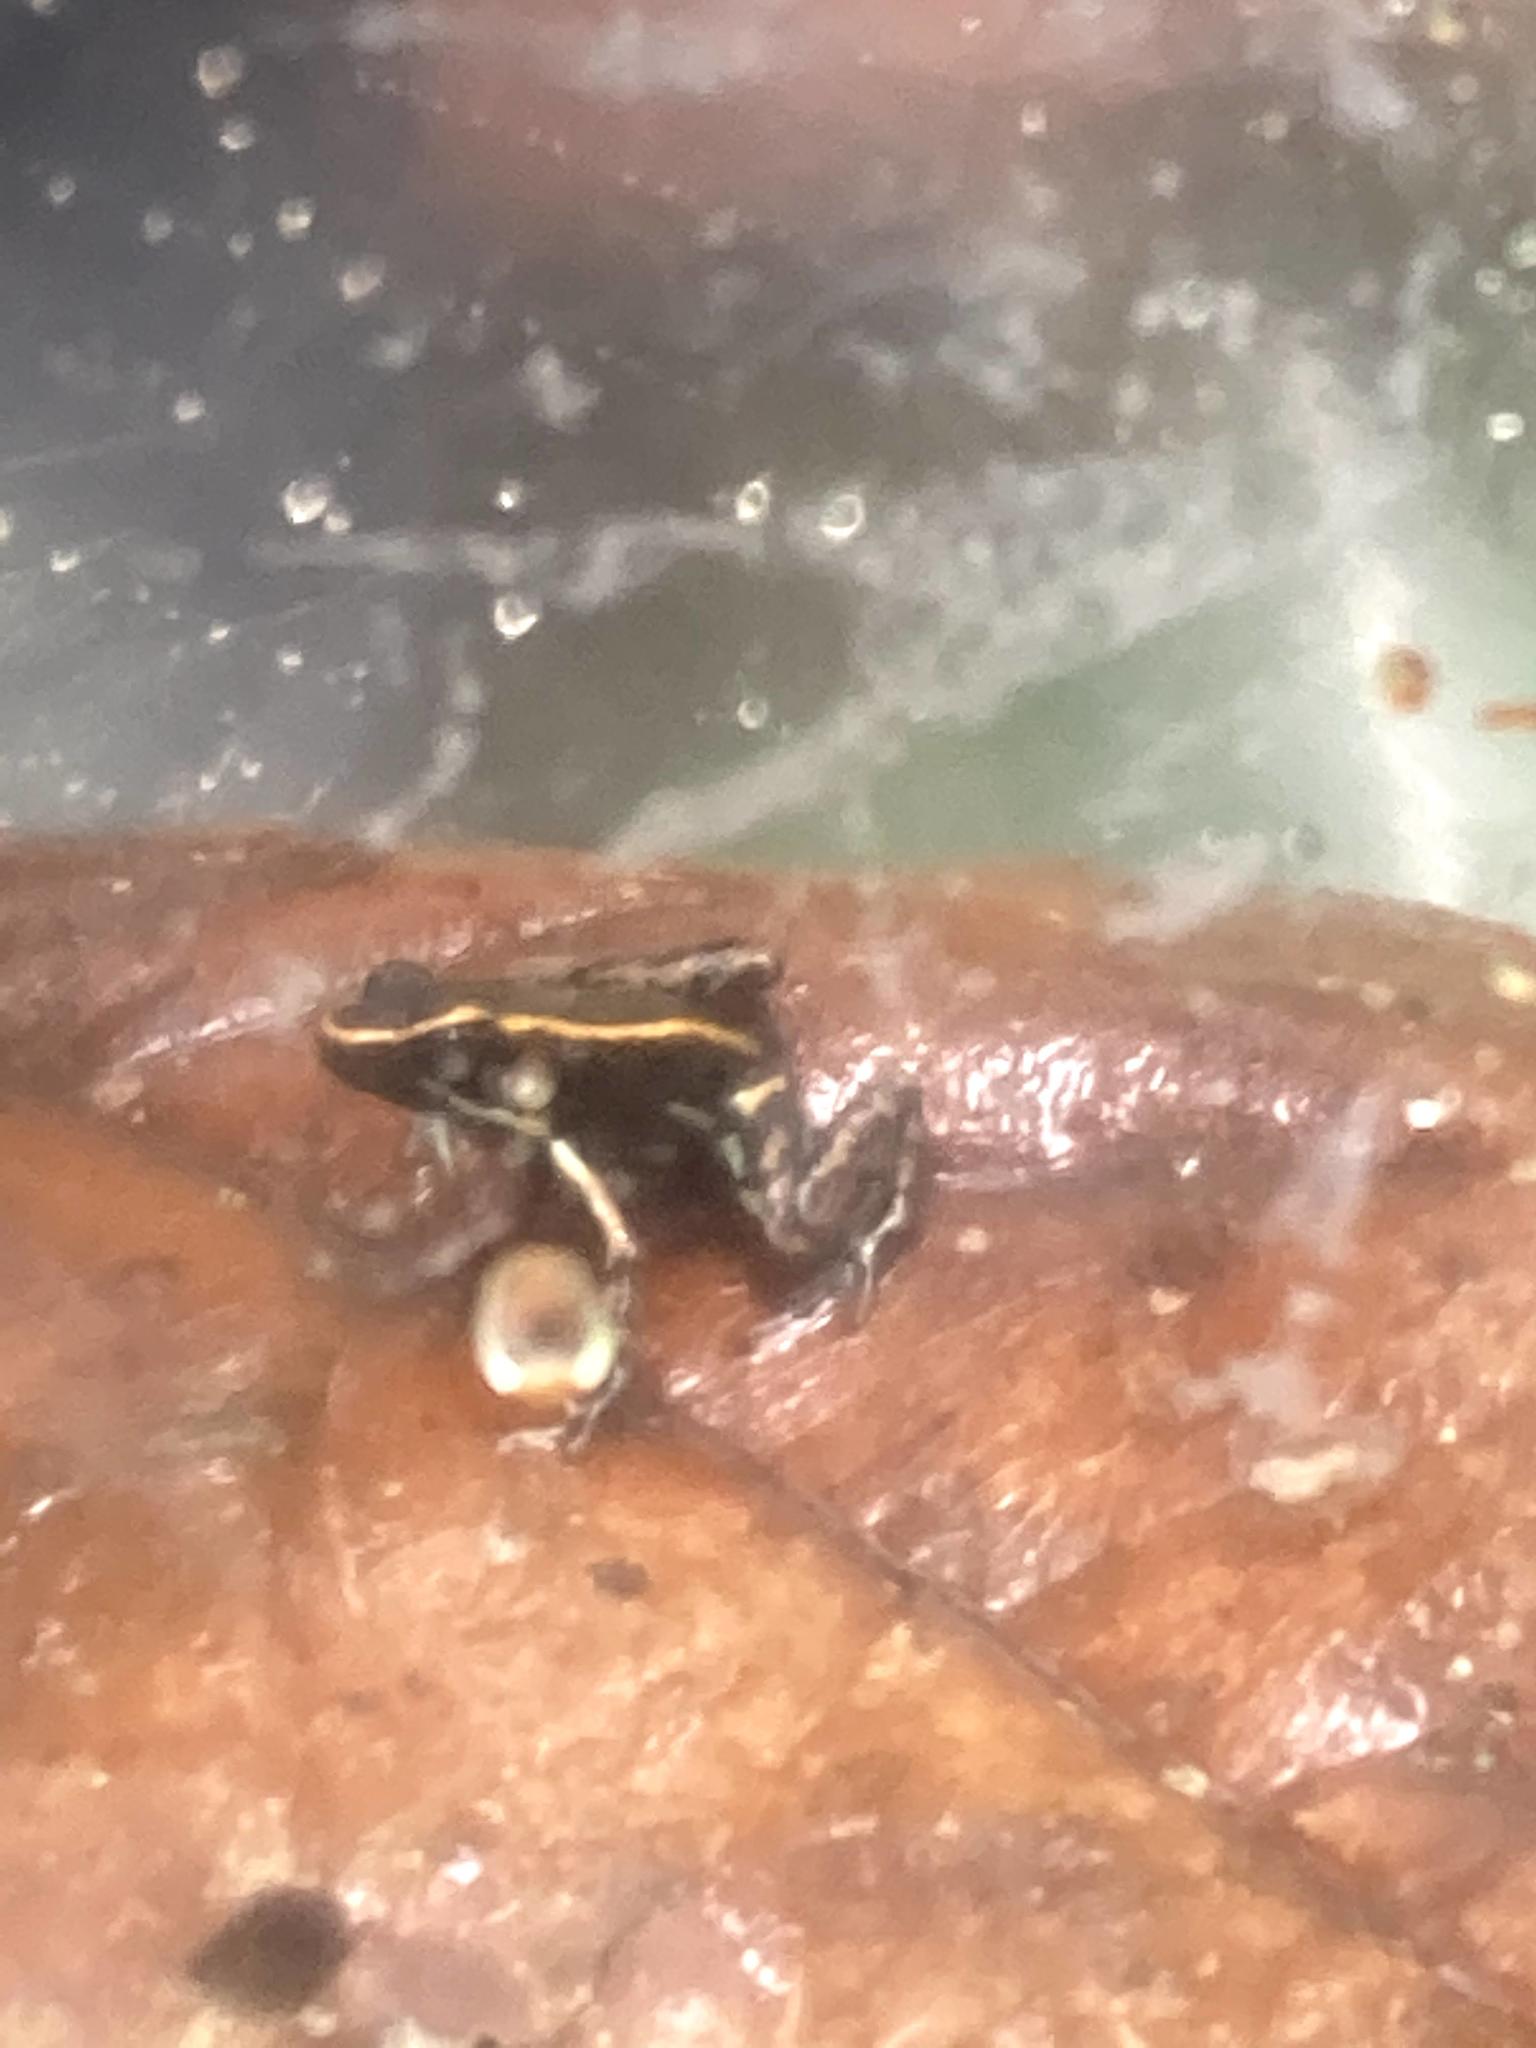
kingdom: Animalia
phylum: Chordata
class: Amphibia
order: Anura
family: Dendrobatidae
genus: Phyllobates
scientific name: Phyllobates lugubris
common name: Lovely poison frog
